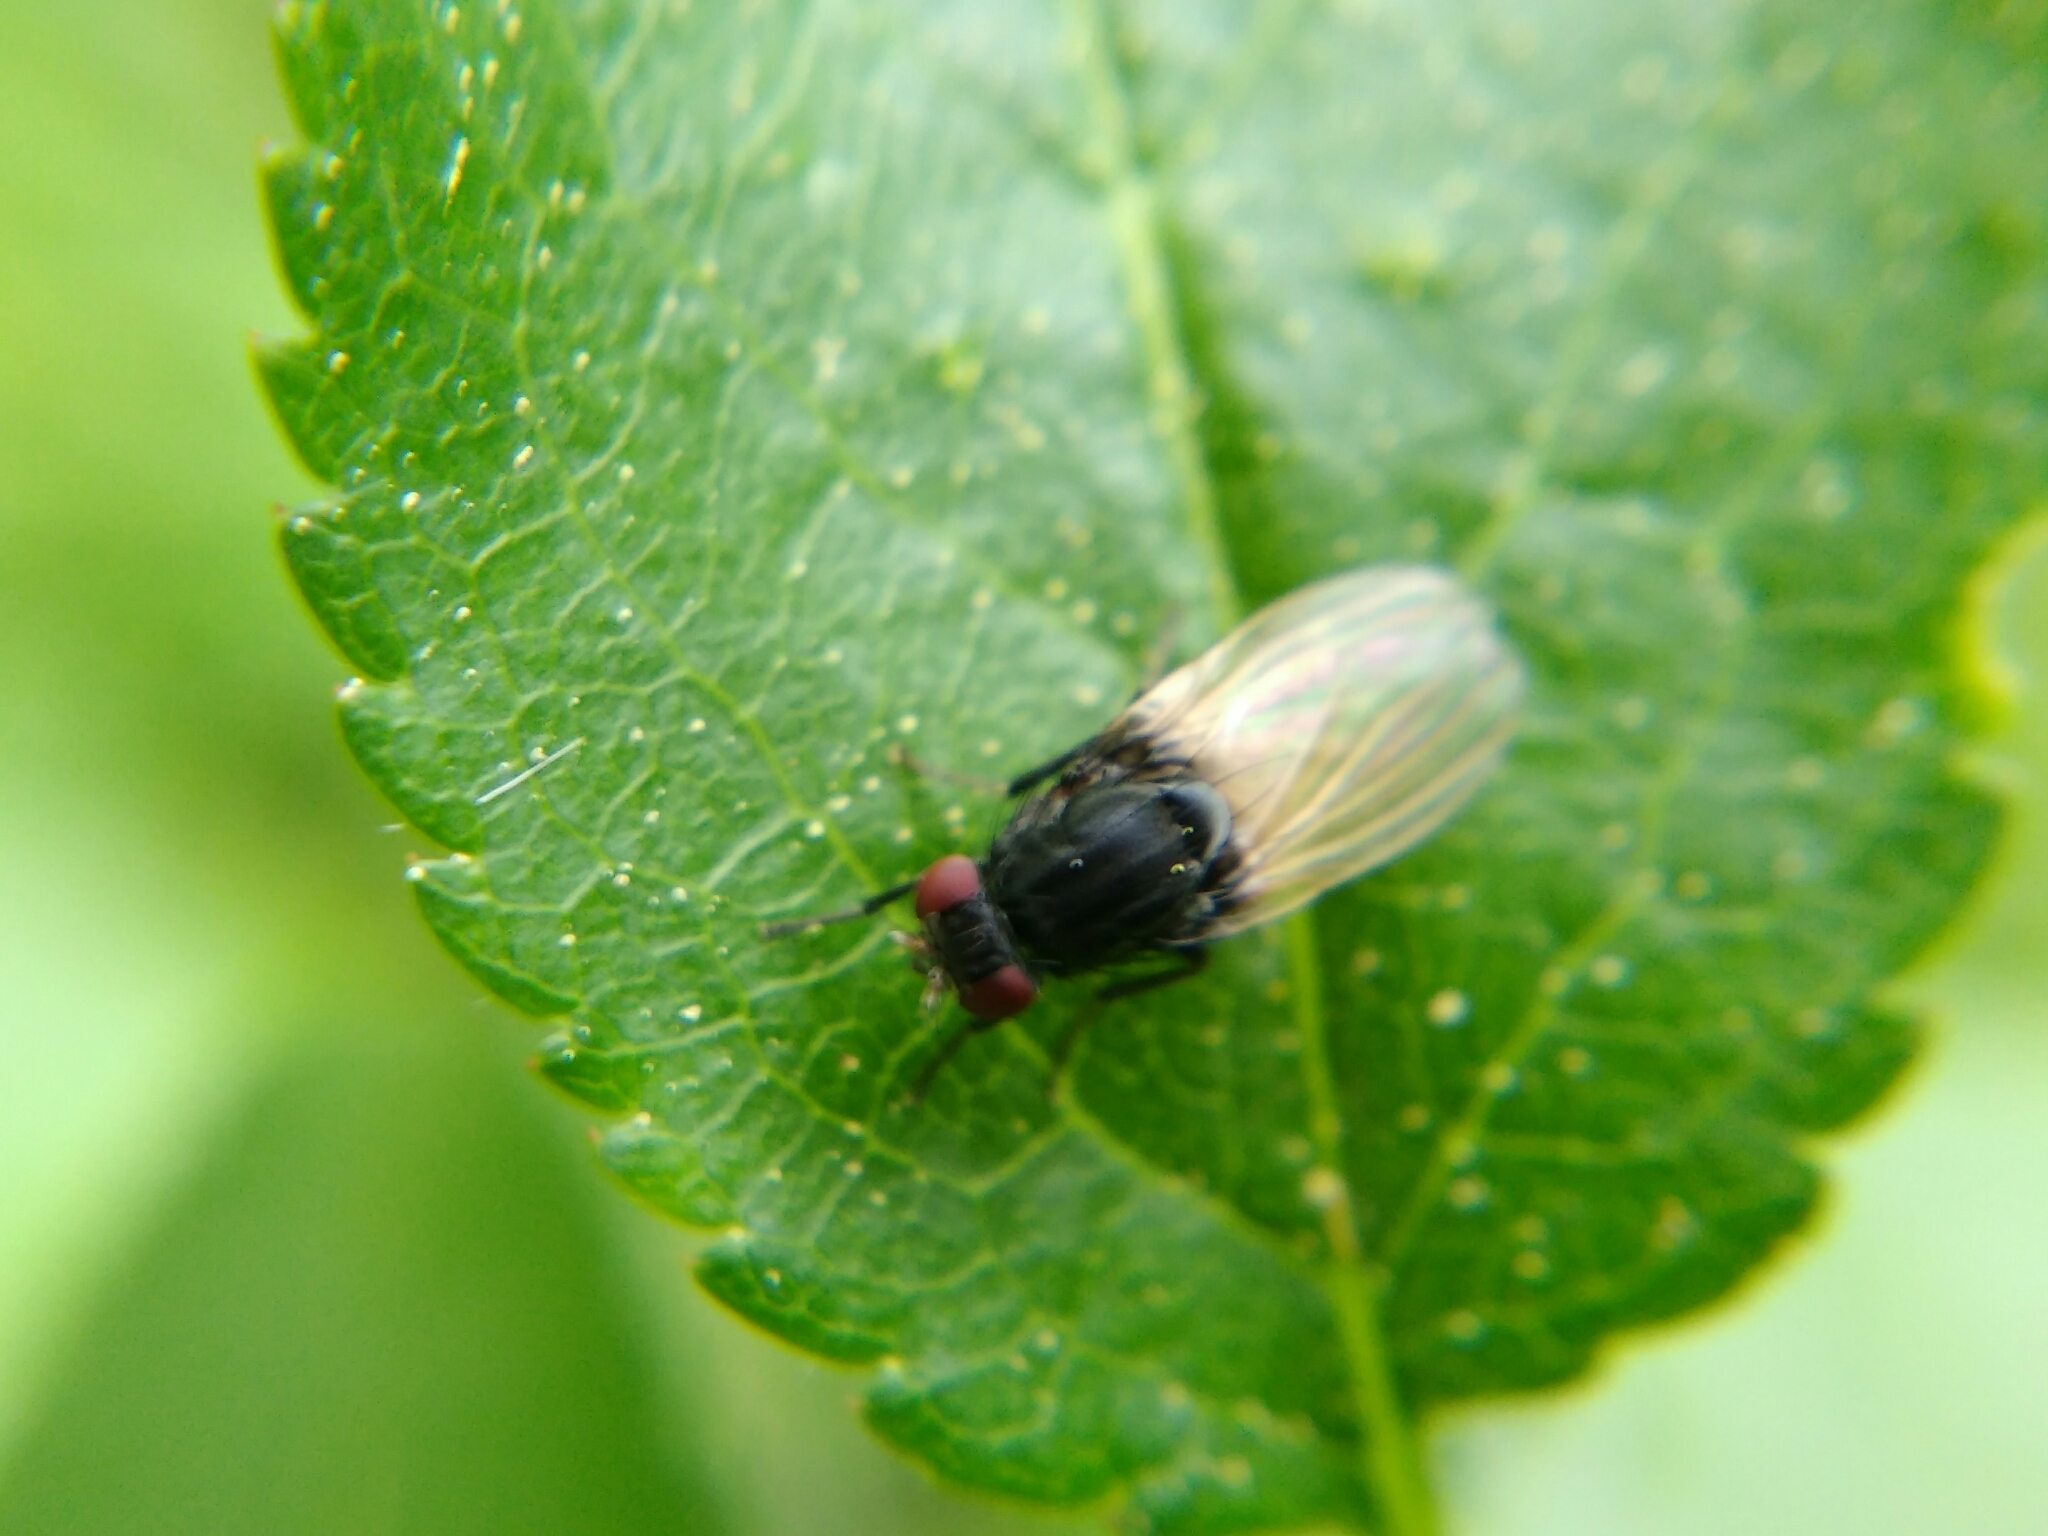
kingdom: Animalia
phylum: Arthropoda
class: Insecta
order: Diptera
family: Lauxaniidae
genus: Minettia
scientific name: Minettia longipennis
